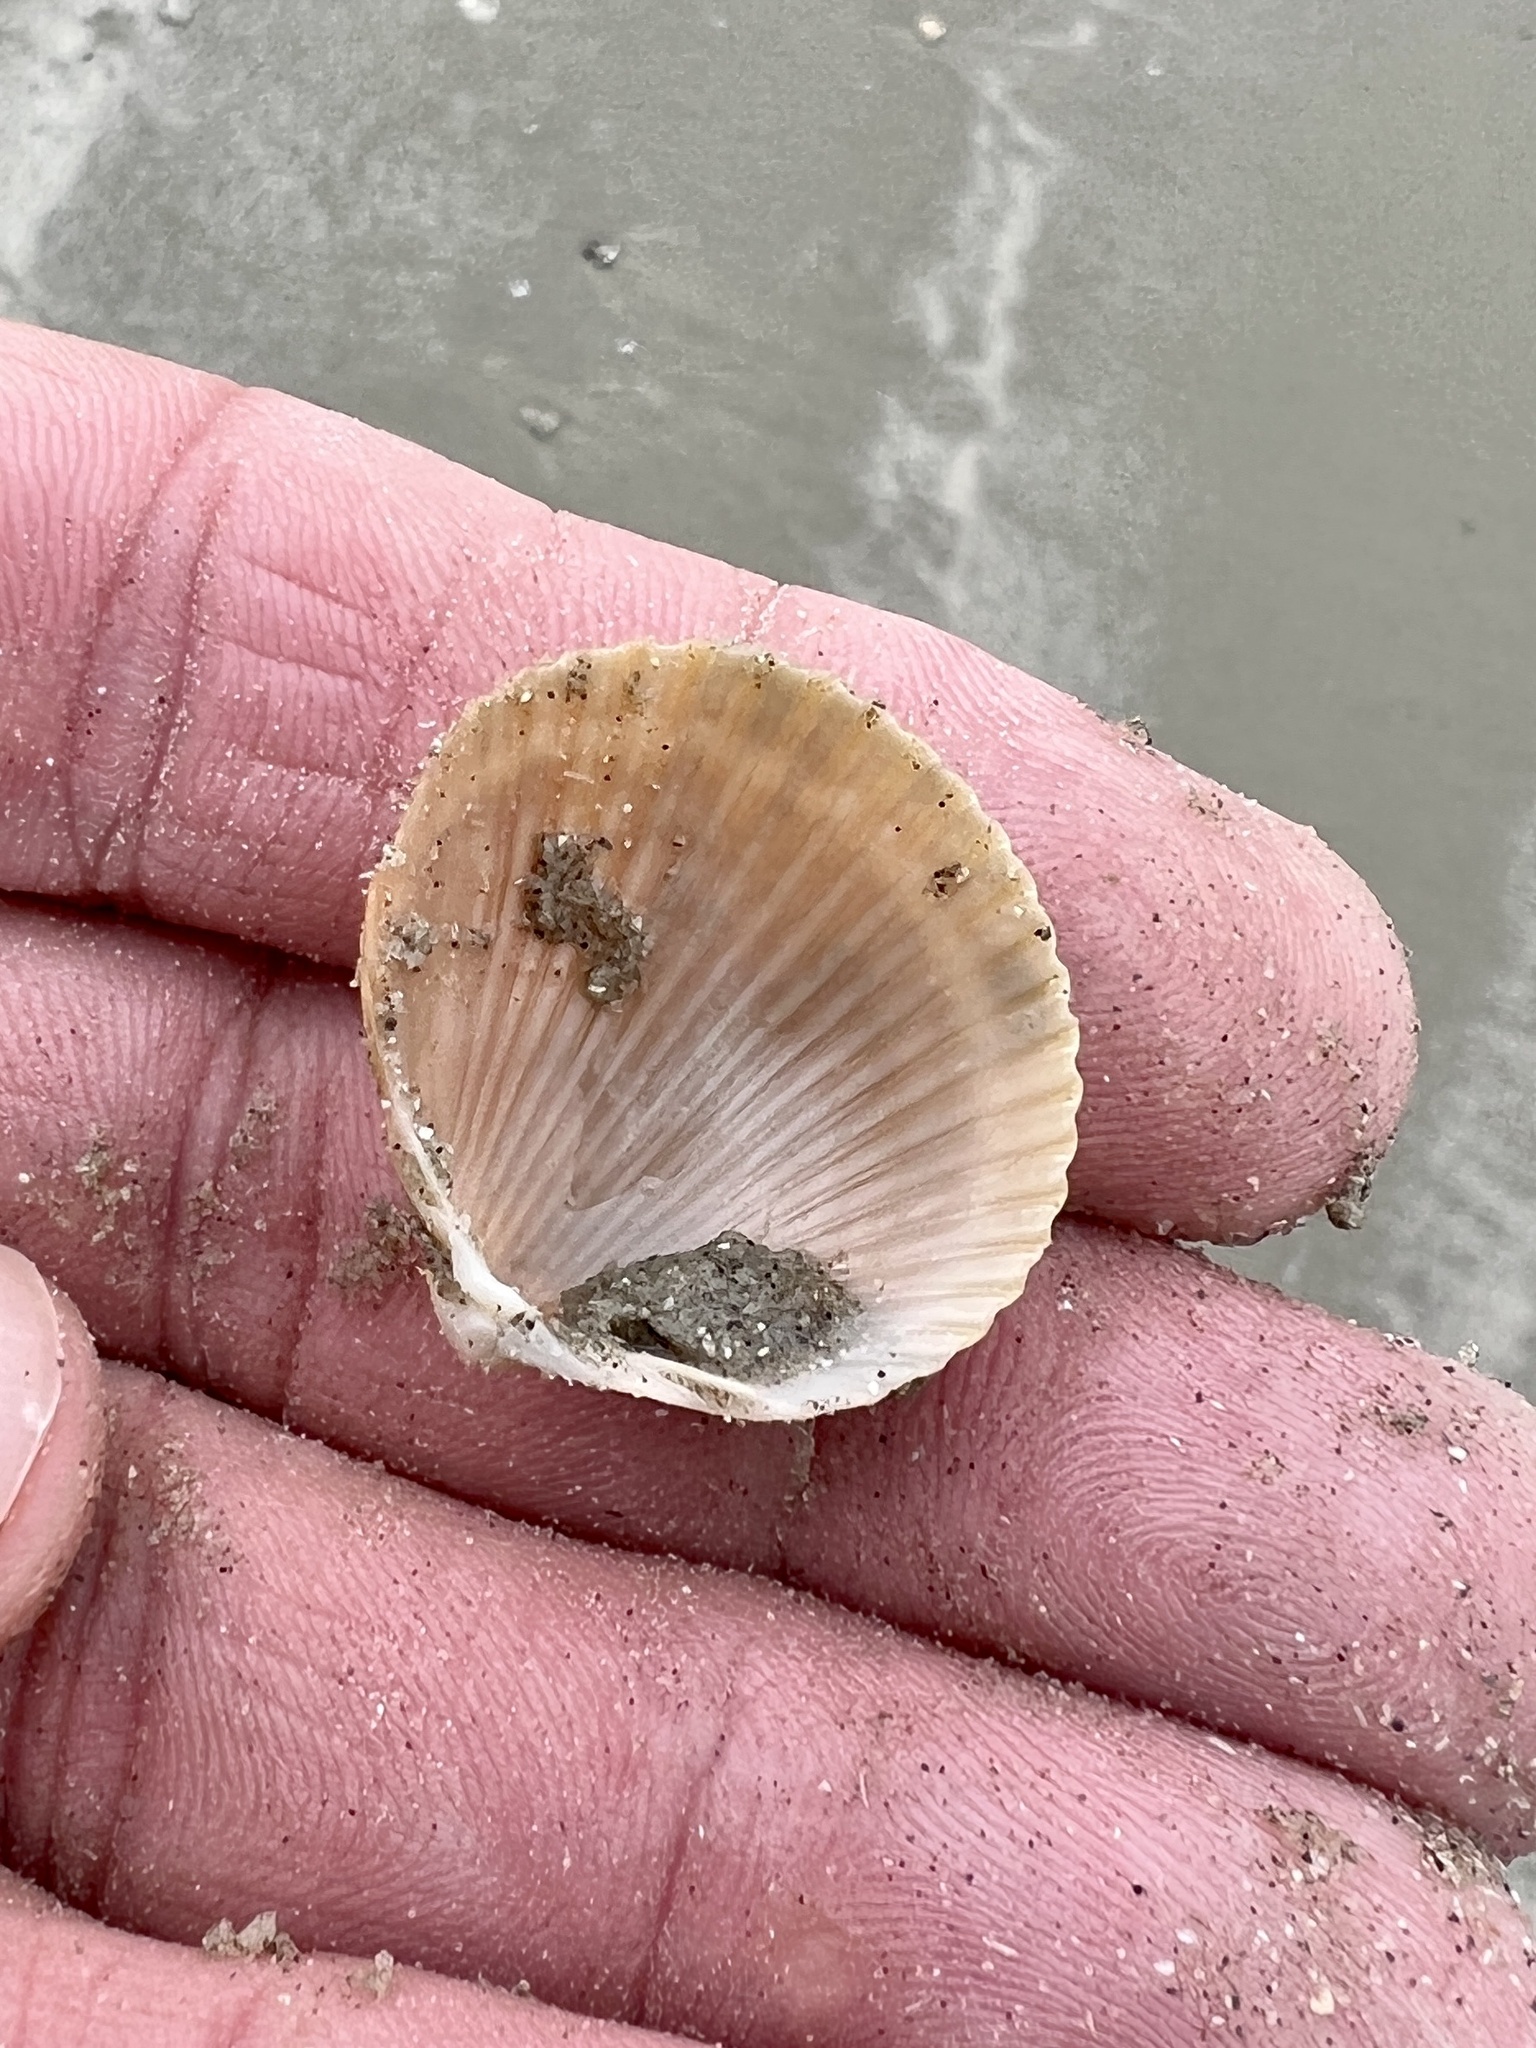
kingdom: Animalia
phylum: Mollusca
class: Bivalvia
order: Cardiida
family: Cardiidae
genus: Dinocardium
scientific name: Dinocardium robustum
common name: Atlantic giant cockle
